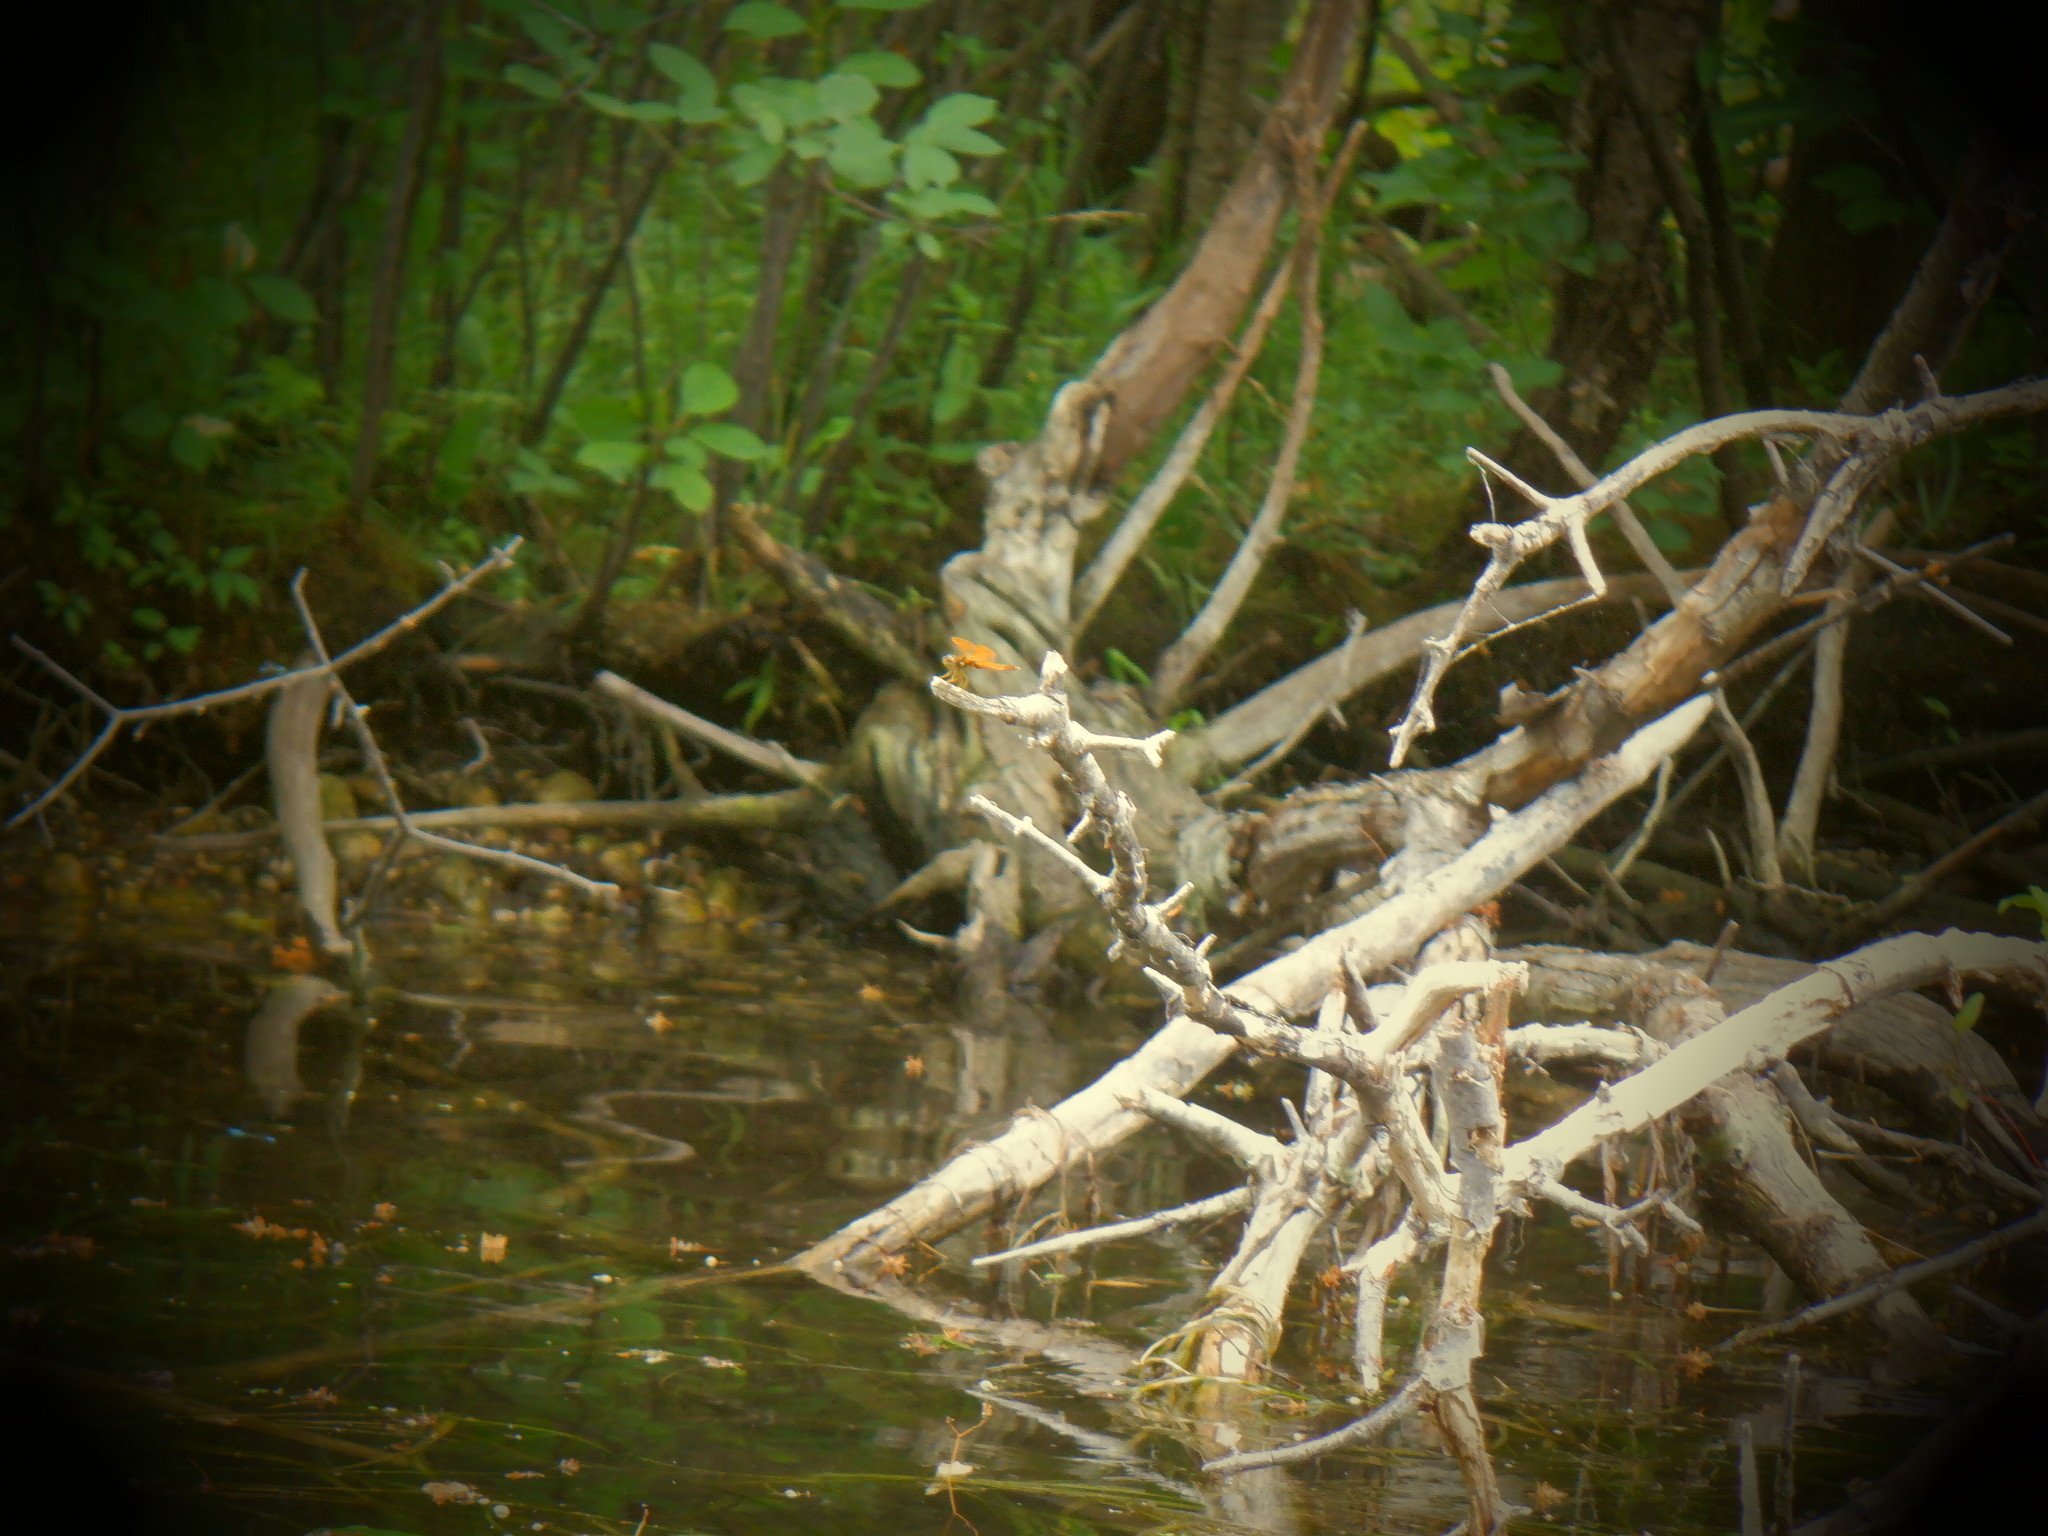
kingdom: Animalia
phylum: Arthropoda
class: Insecta
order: Odonata
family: Libellulidae
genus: Perithemis
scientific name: Perithemis tenera
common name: Eastern amberwing
